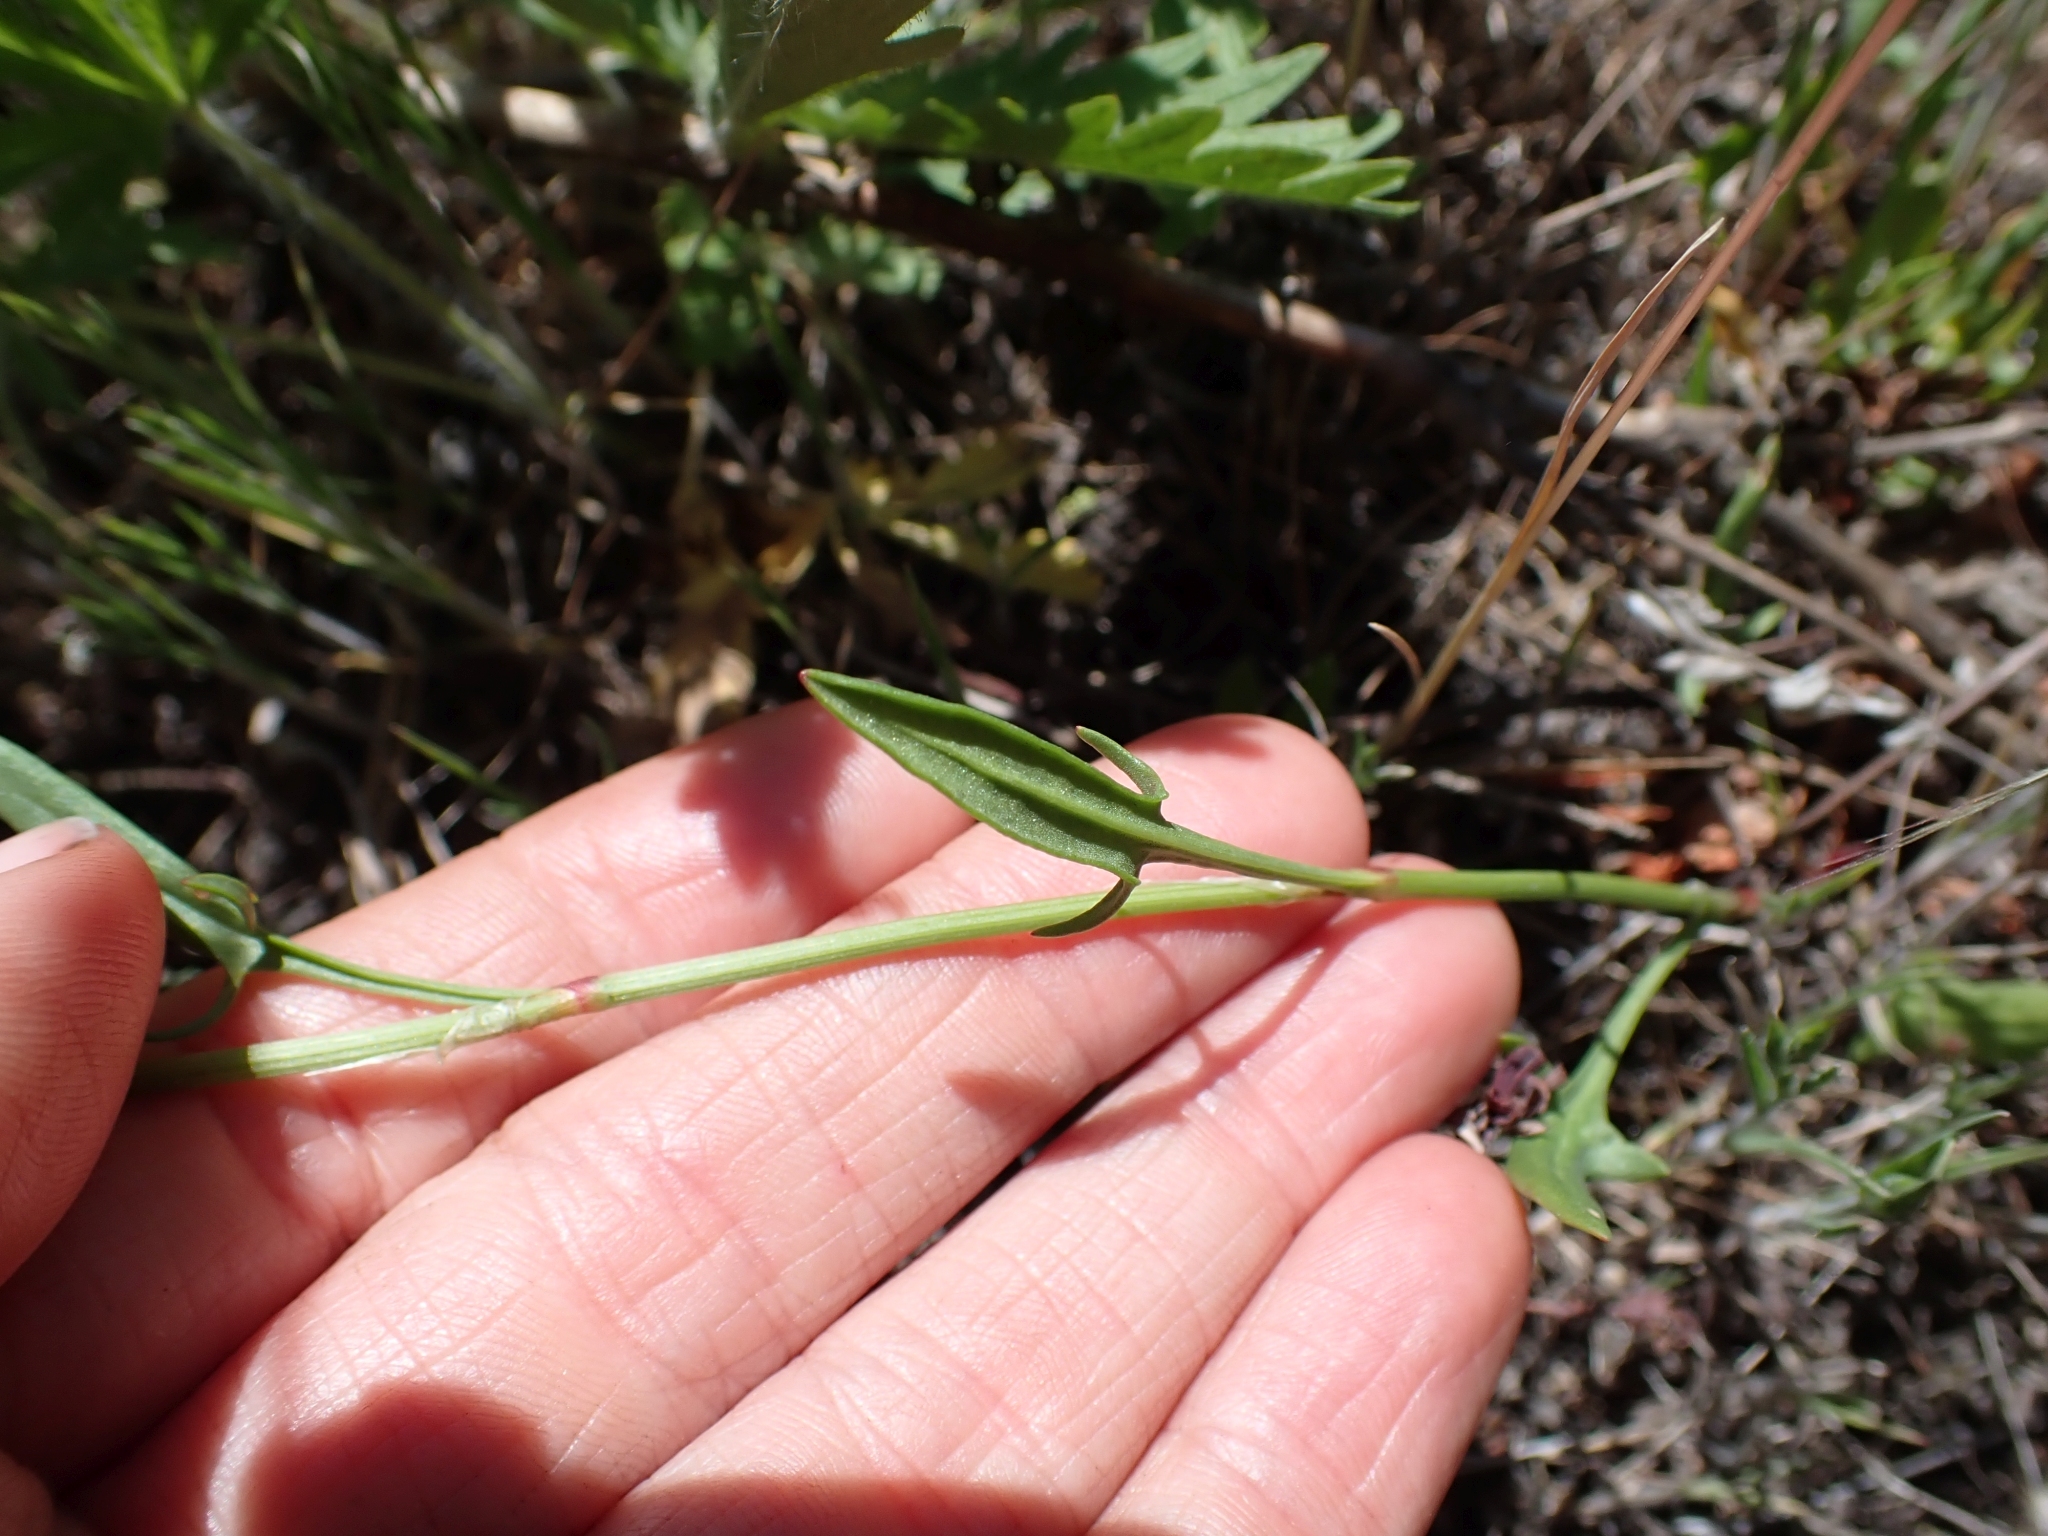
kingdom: Plantae
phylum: Tracheophyta
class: Magnoliopsida
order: Caryophyllales
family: Polygonaceae
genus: Rumex
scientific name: Rumex acetosella
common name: Common sheep sorrel
